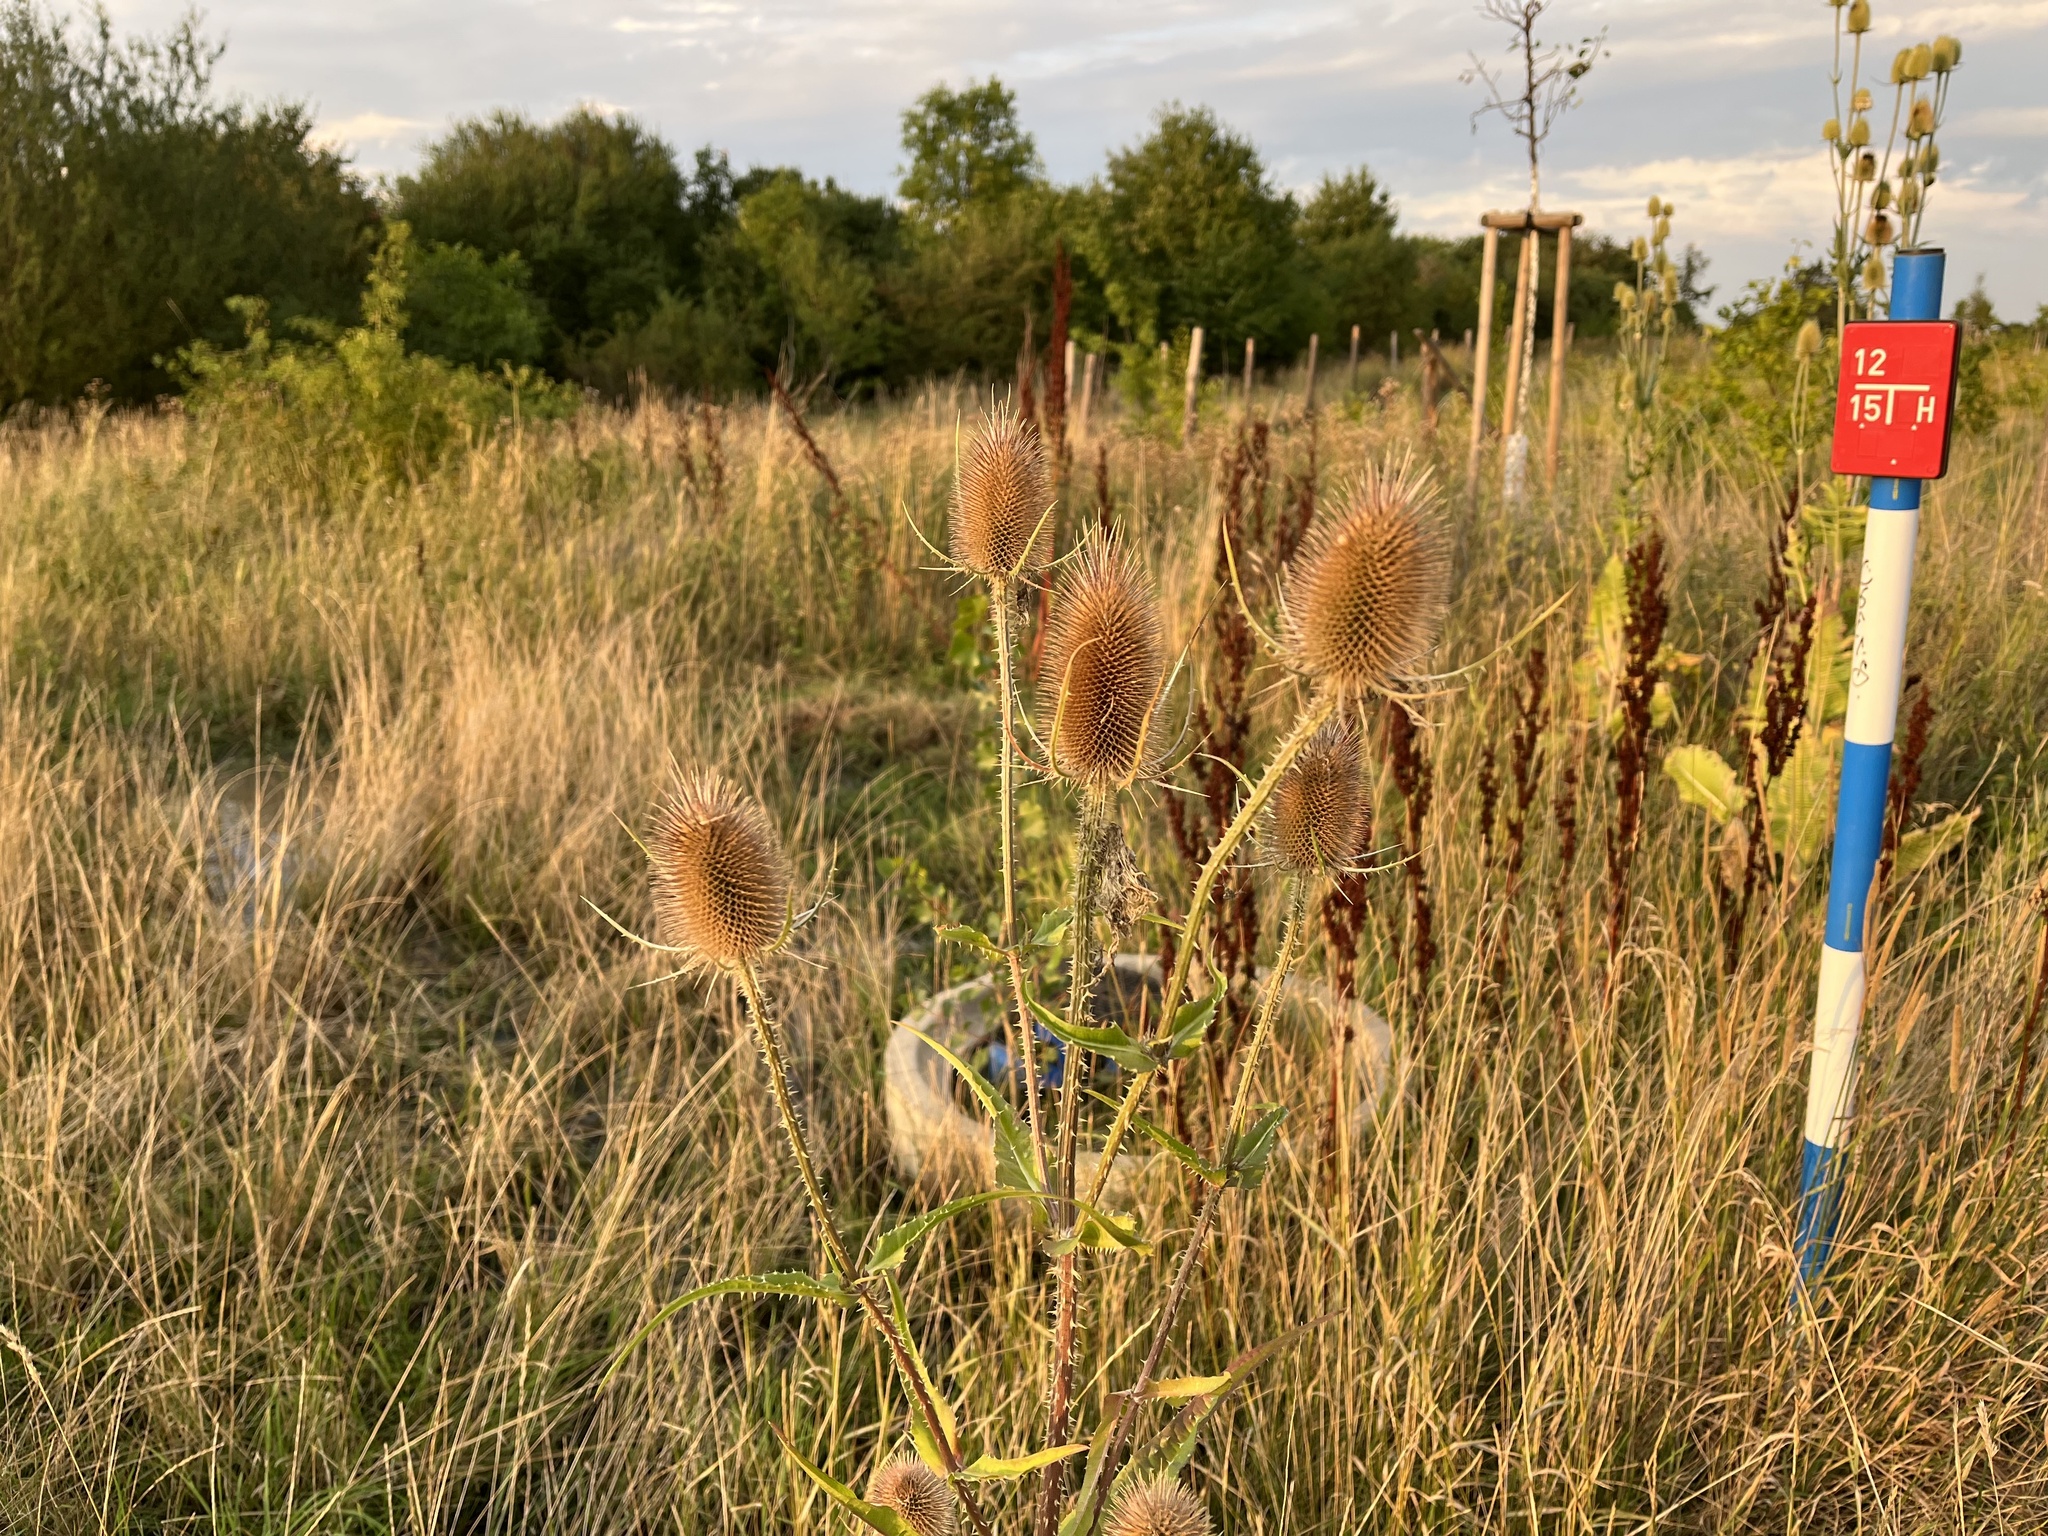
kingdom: Plantae
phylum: Tracheophyta
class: Magnoliopsida
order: Dipsacales
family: Caprifoliaceae
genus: Dipsacus
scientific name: Dipsacus fullonum
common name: Teasel
